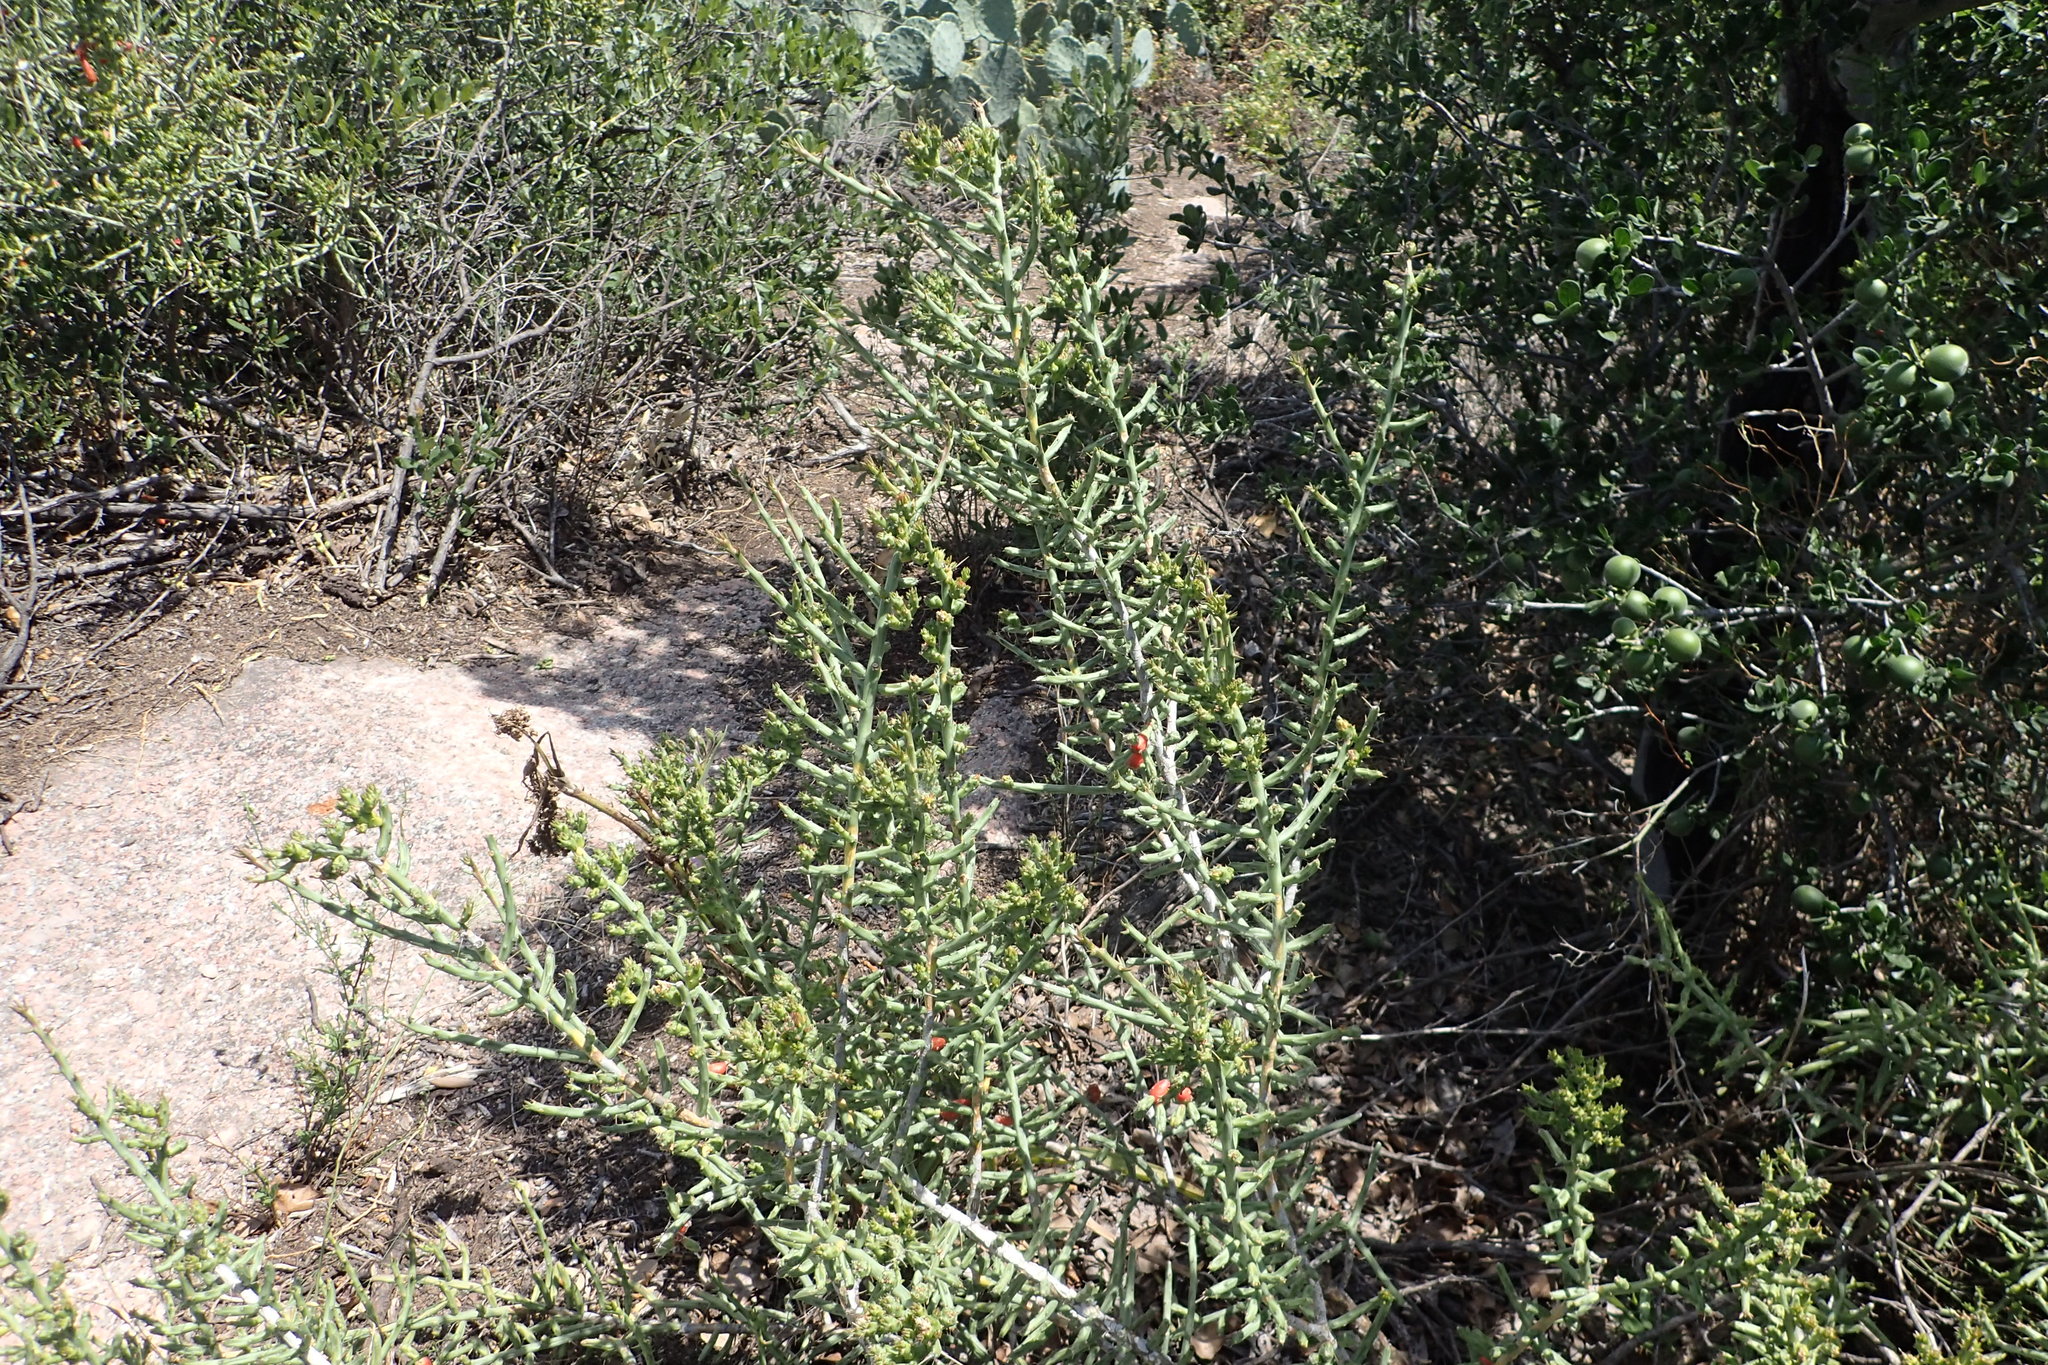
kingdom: Plantae
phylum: Tracheophyta
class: Magnoliopsida
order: Caryophyllales
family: Cactaceae
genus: Cylindropuntia
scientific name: Cylindropuntia leptocaulis
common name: Christmas cactus
